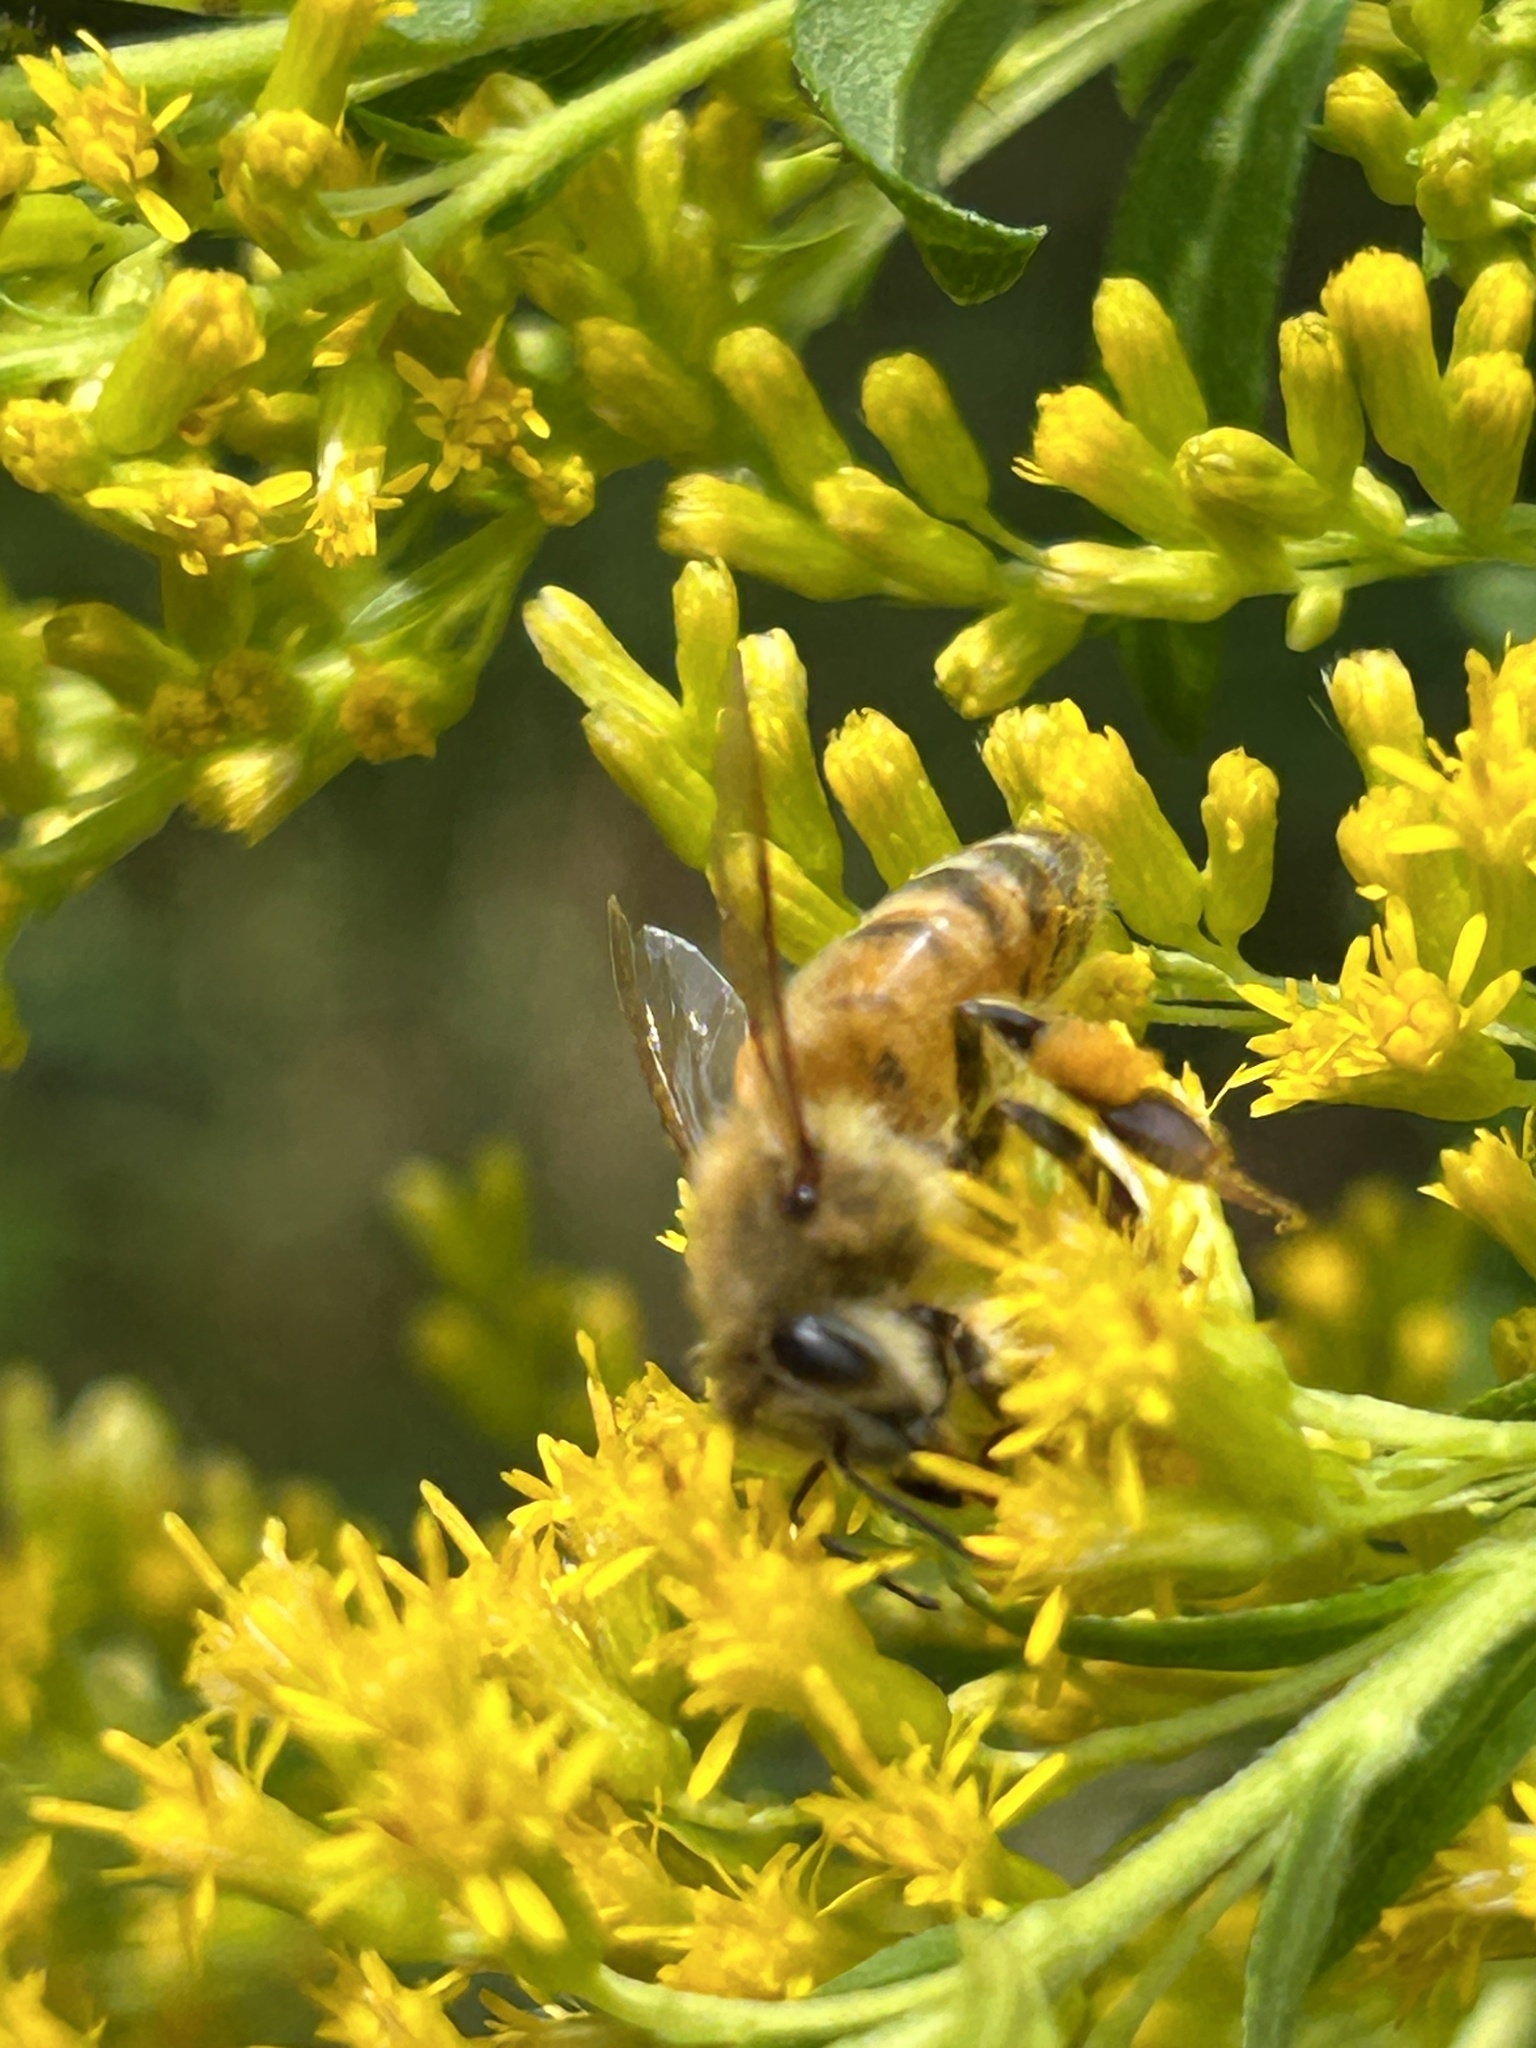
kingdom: Animalia
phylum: Arthropoda
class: Insecta
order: Hymenoptera
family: Apidae
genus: Apis
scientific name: Apis mellifera
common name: Honey bee
